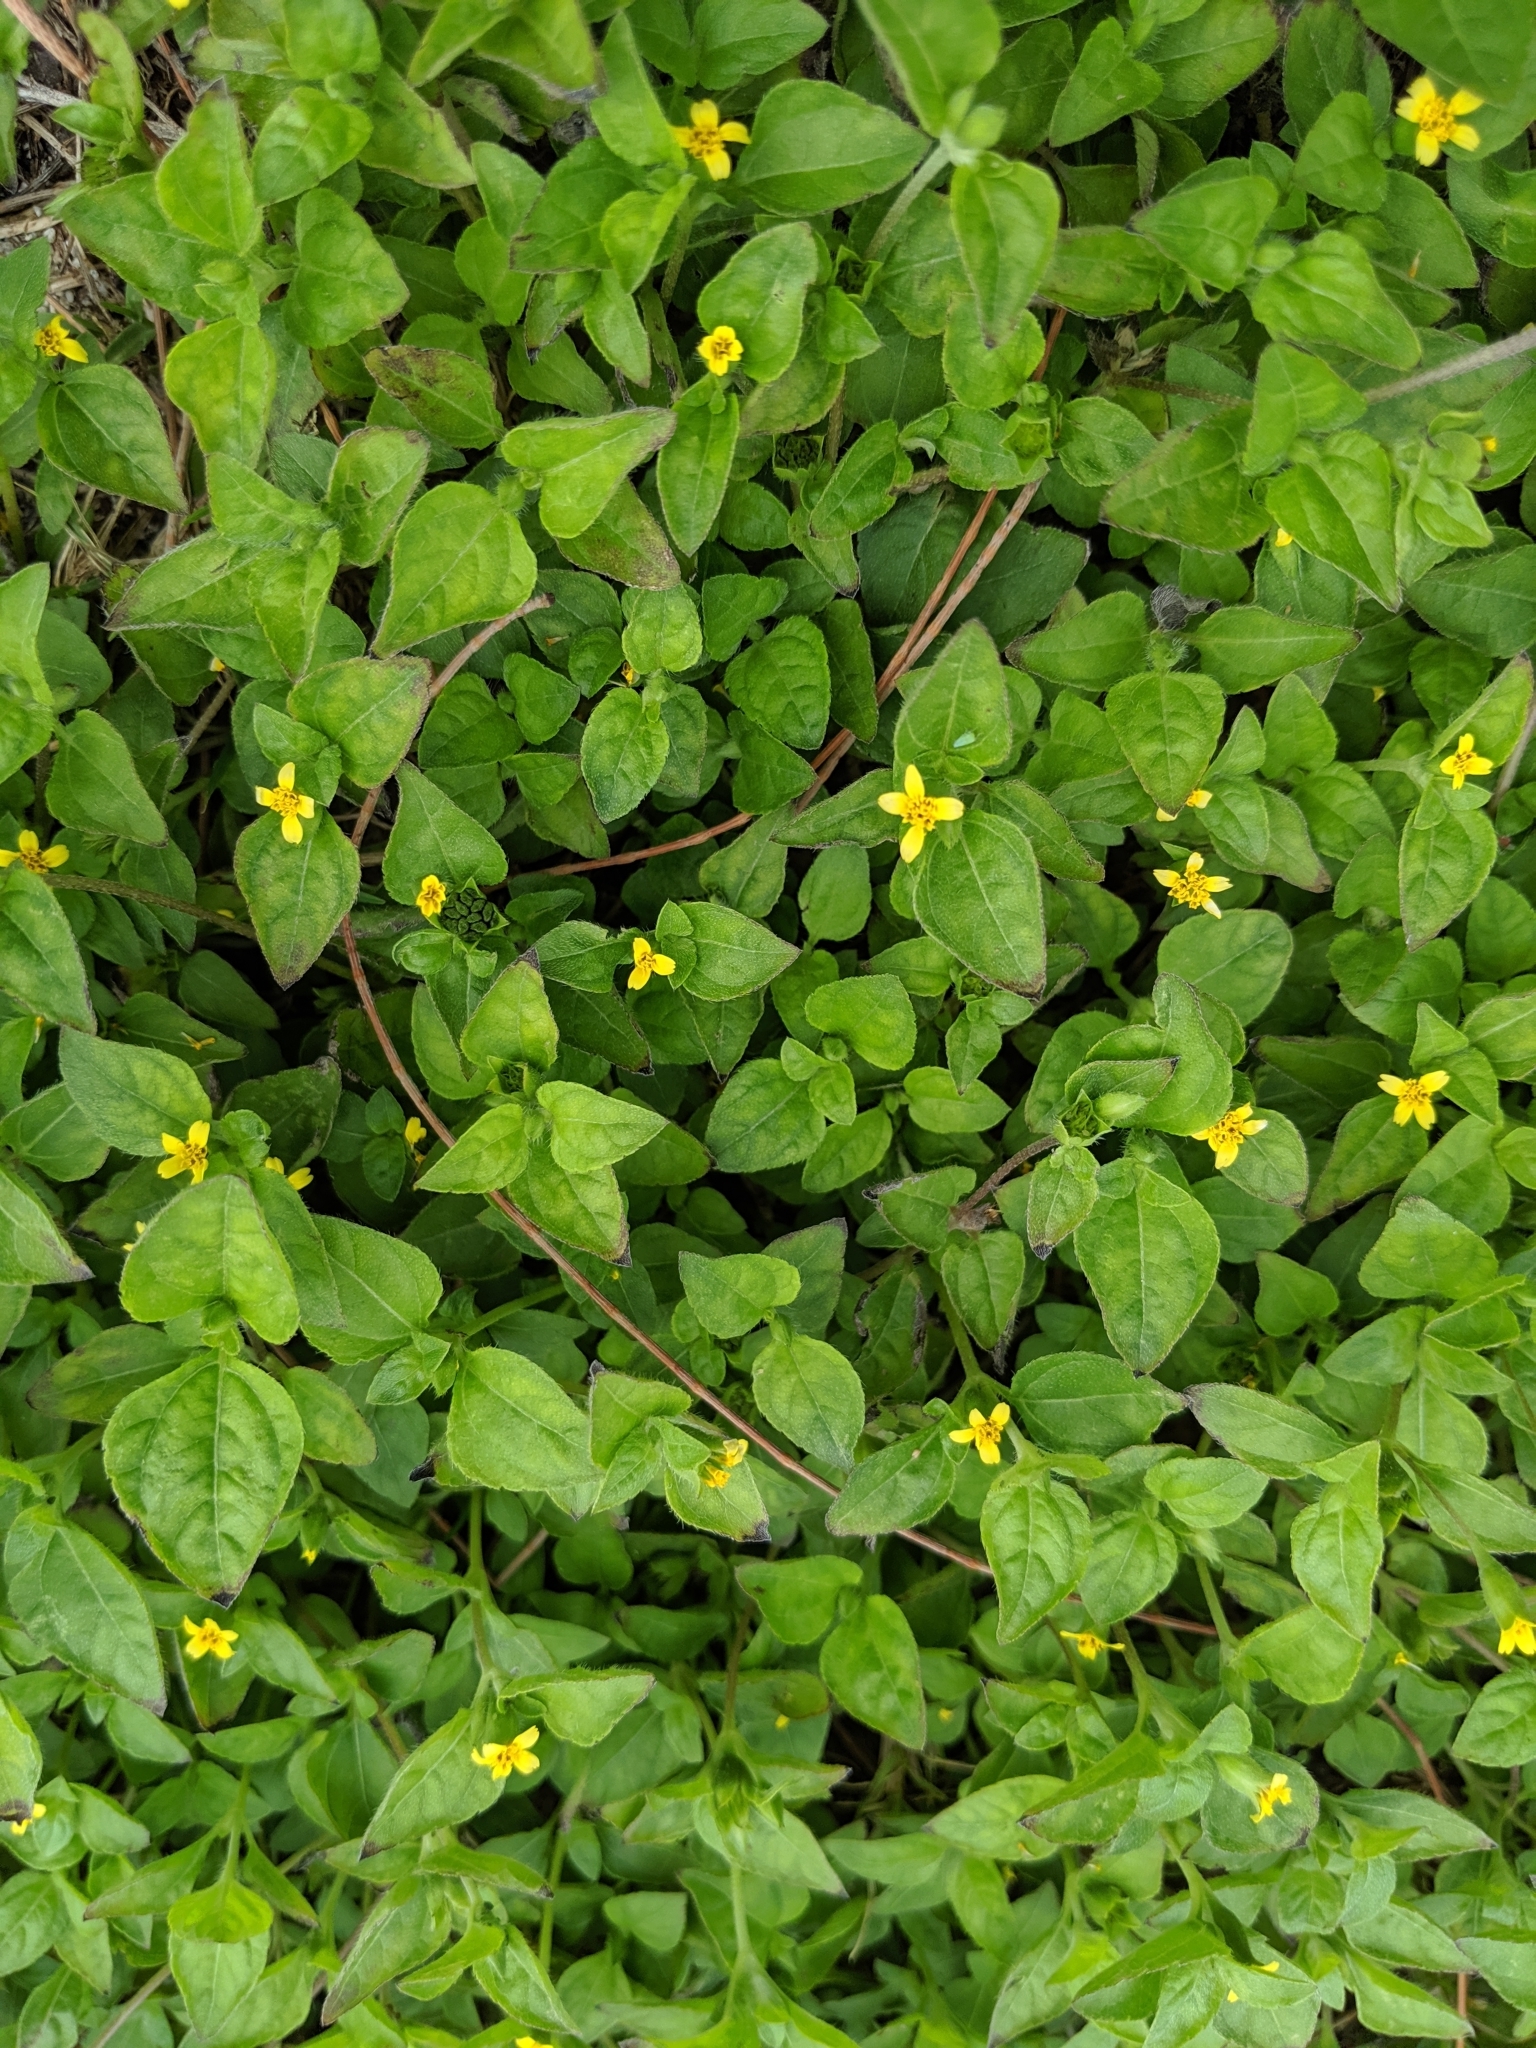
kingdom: Plantae
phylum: Tracheophyta
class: Magnoliopsida
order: Asterales
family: Asteraceae
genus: Calyptocarpus
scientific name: Calyptocarpus vialis
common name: Straggler daisy
